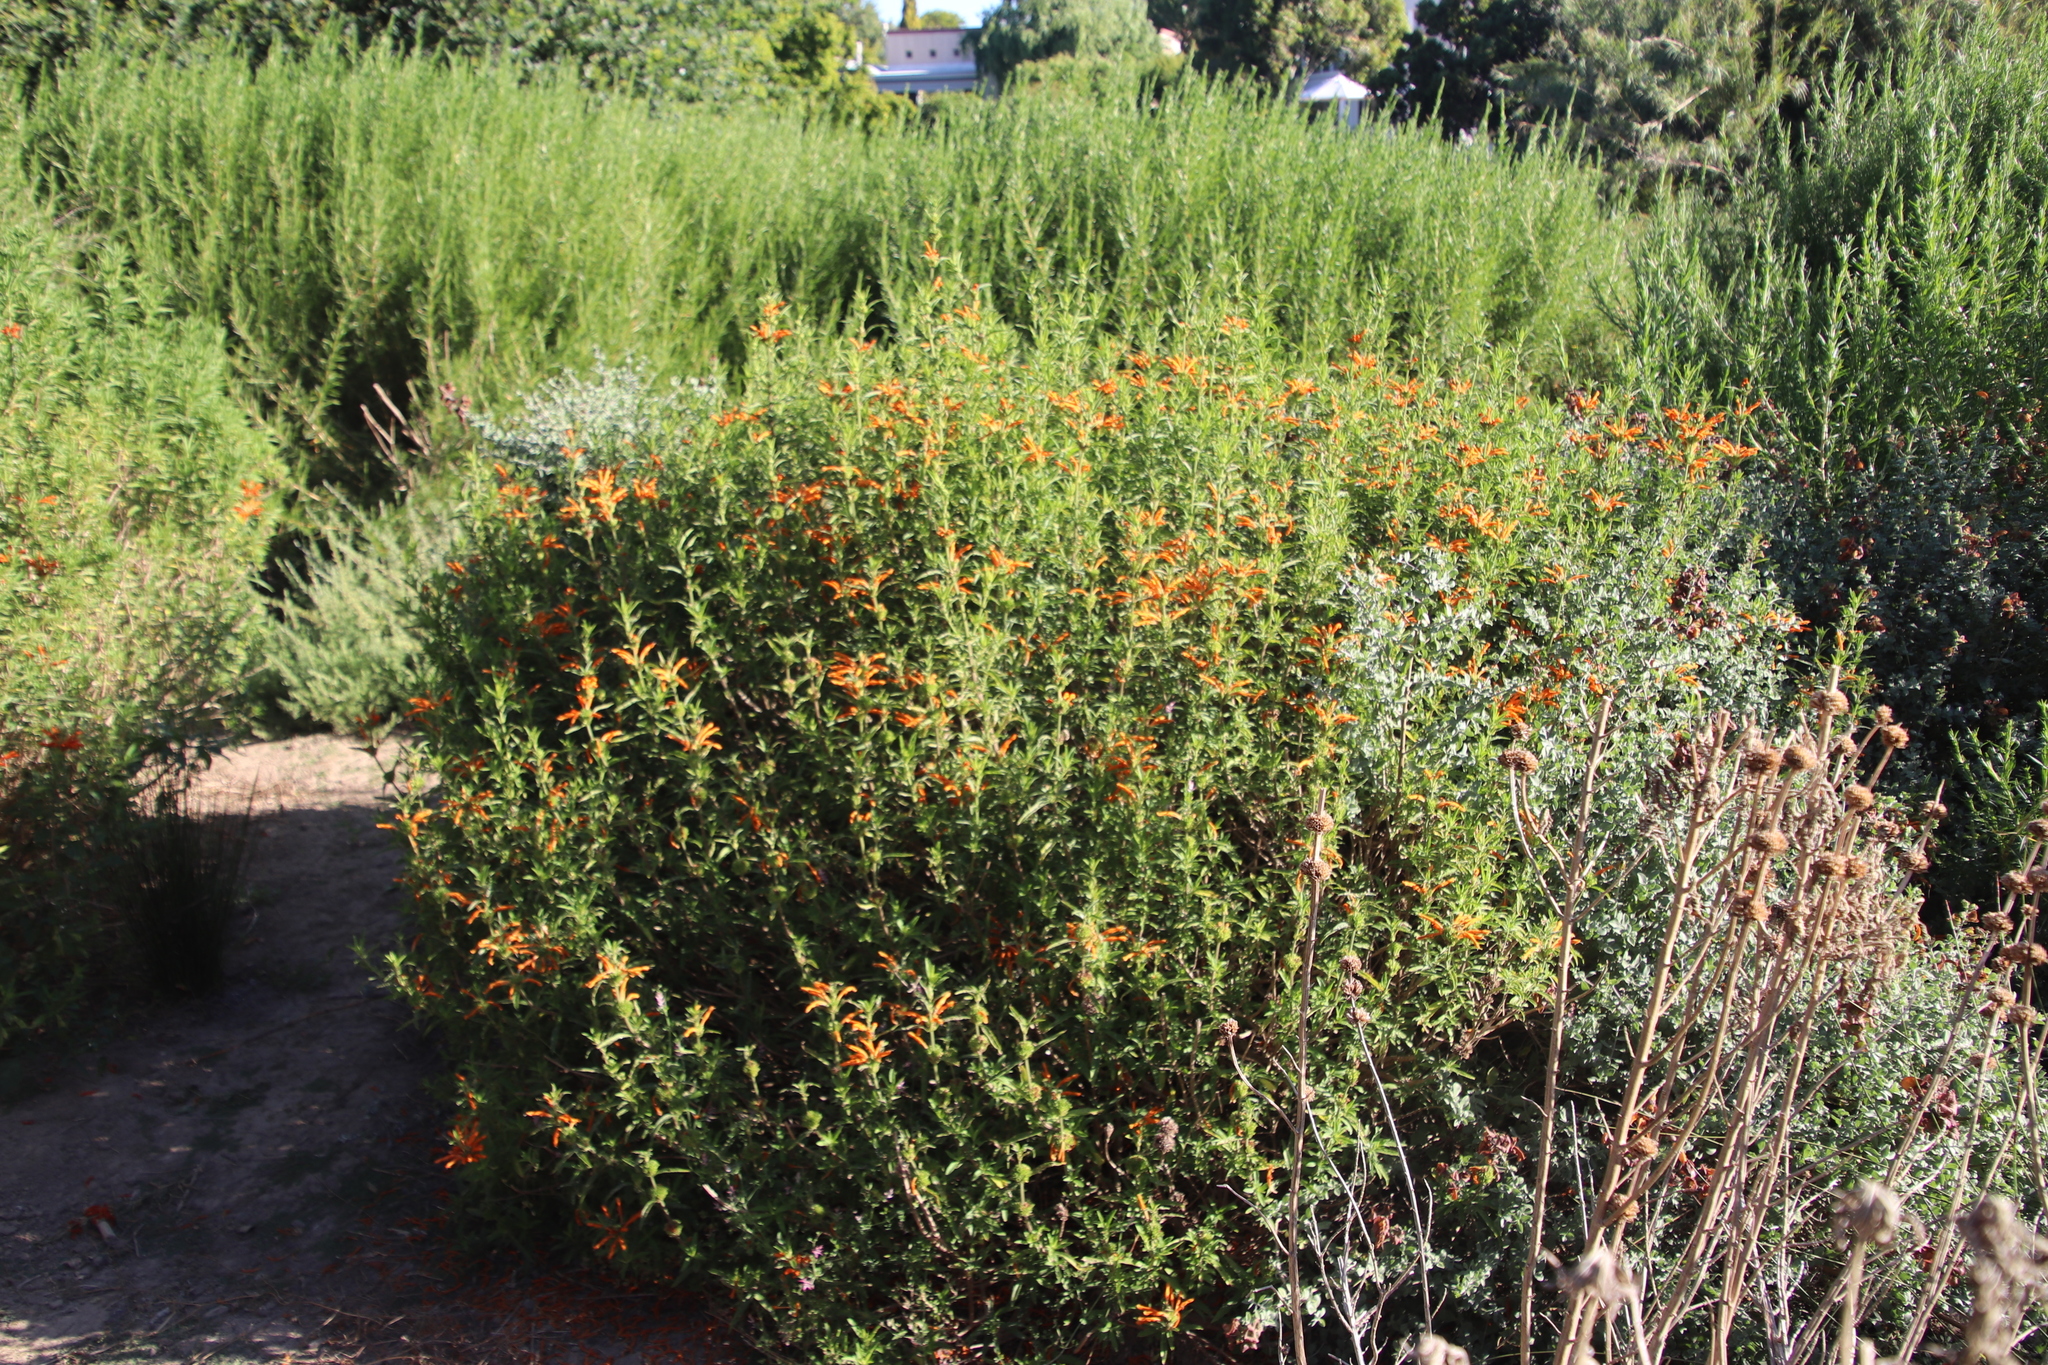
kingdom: Plantae
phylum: Tracheophyta
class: Magnoliopsida
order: Lamiales
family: Lamiaceae
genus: Leonotis
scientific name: Leonotis leonurus
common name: Lion's ear
